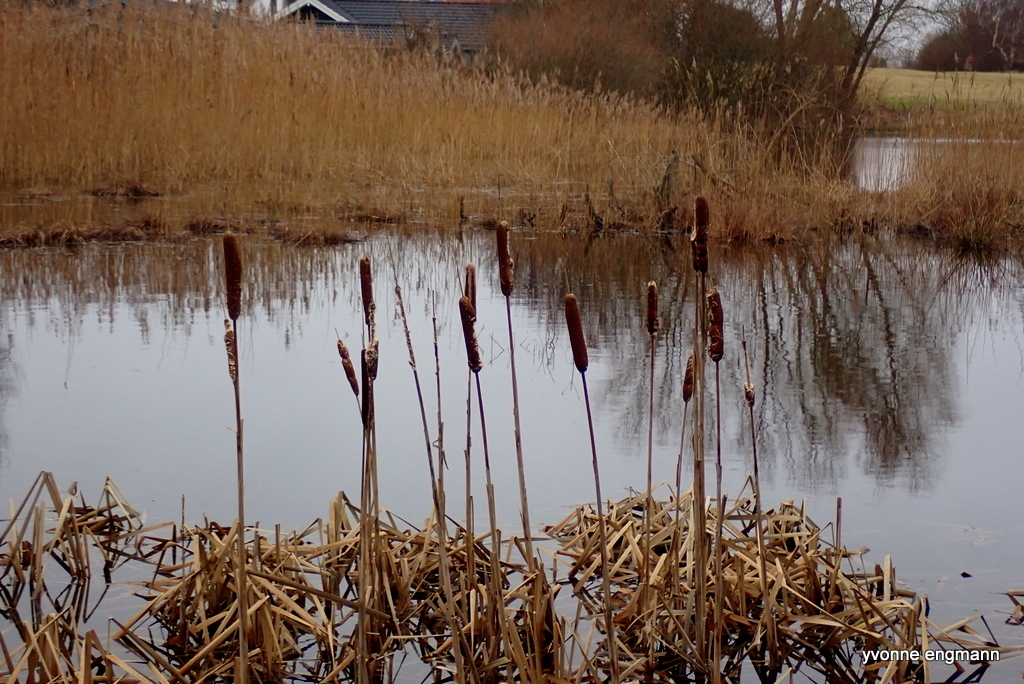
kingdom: Plantae
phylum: Tracheophyta
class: Liliopsida
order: Poales
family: Typhaceae
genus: Typha
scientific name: Typha latifolia
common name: Broadleaf cattail
